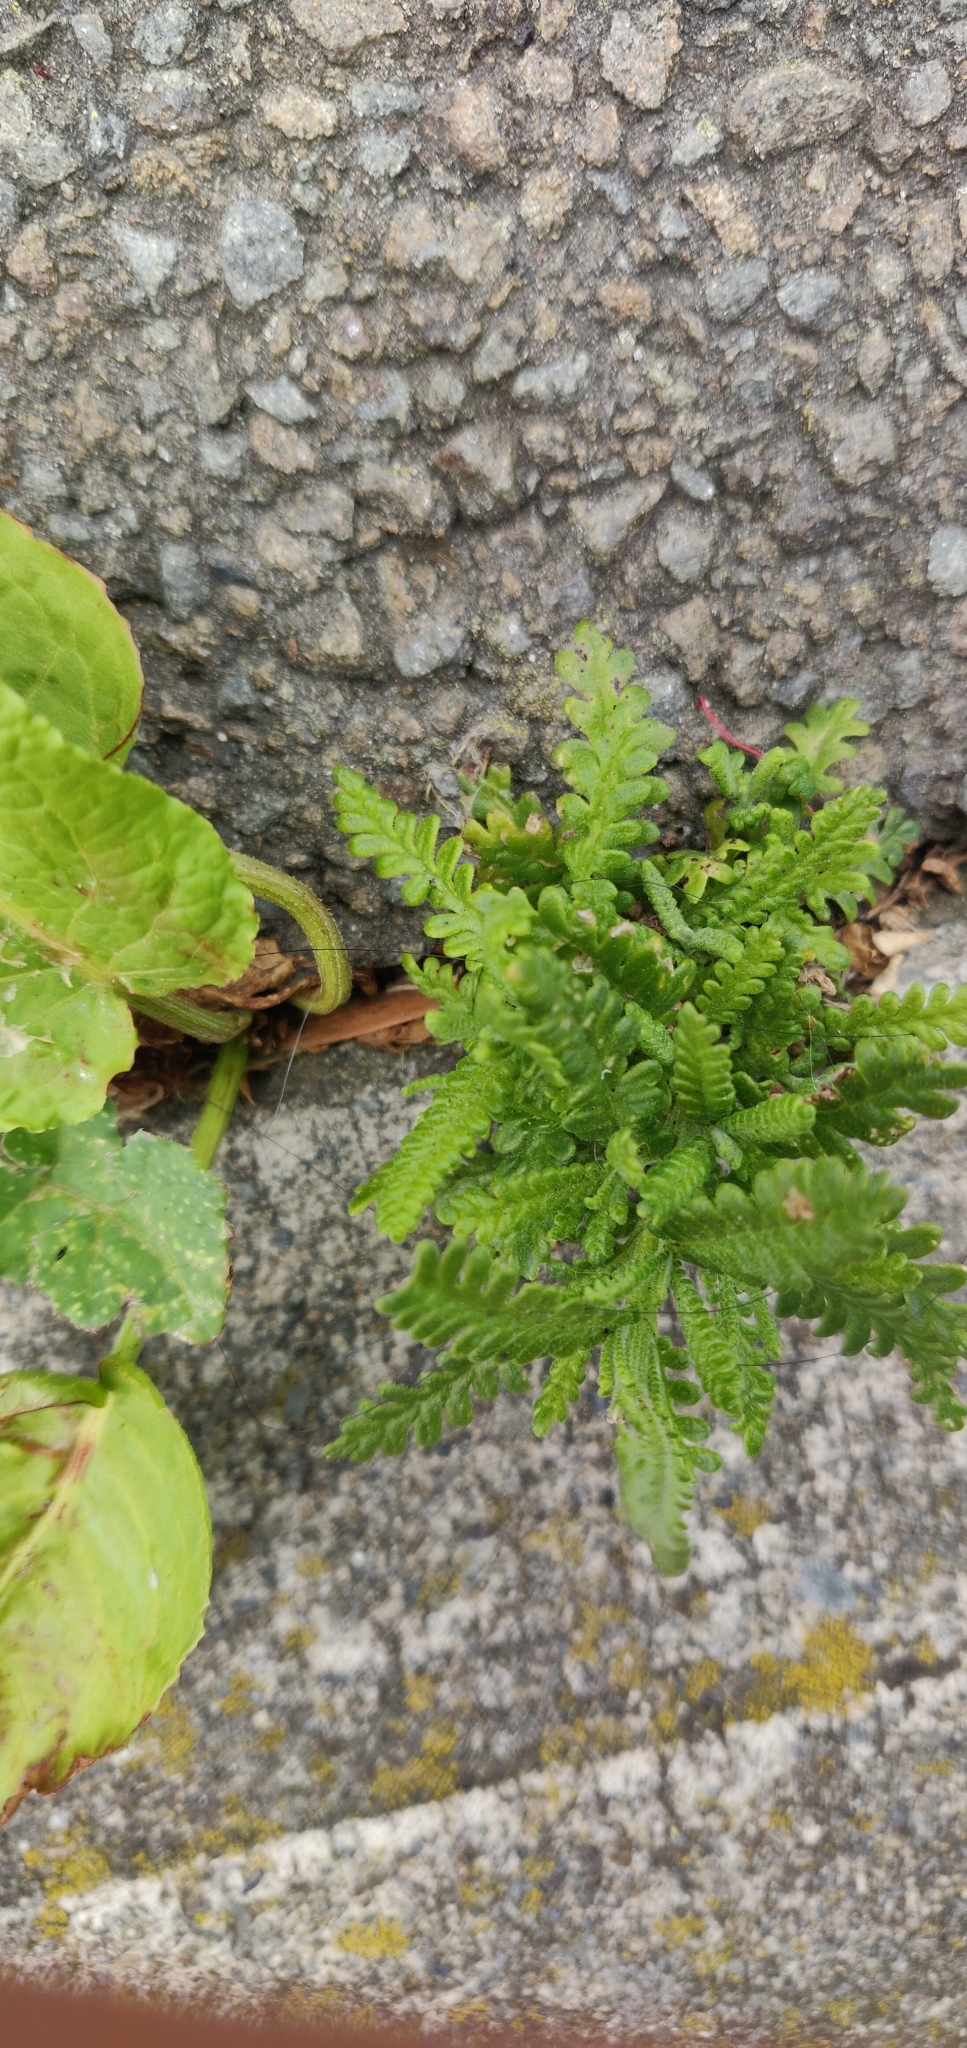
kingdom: Plantae
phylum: Tracheophyta
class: Magnoliopsida
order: Asterales
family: Asteraceae
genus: Achillea
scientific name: Achillea millefolium
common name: Yarrow
